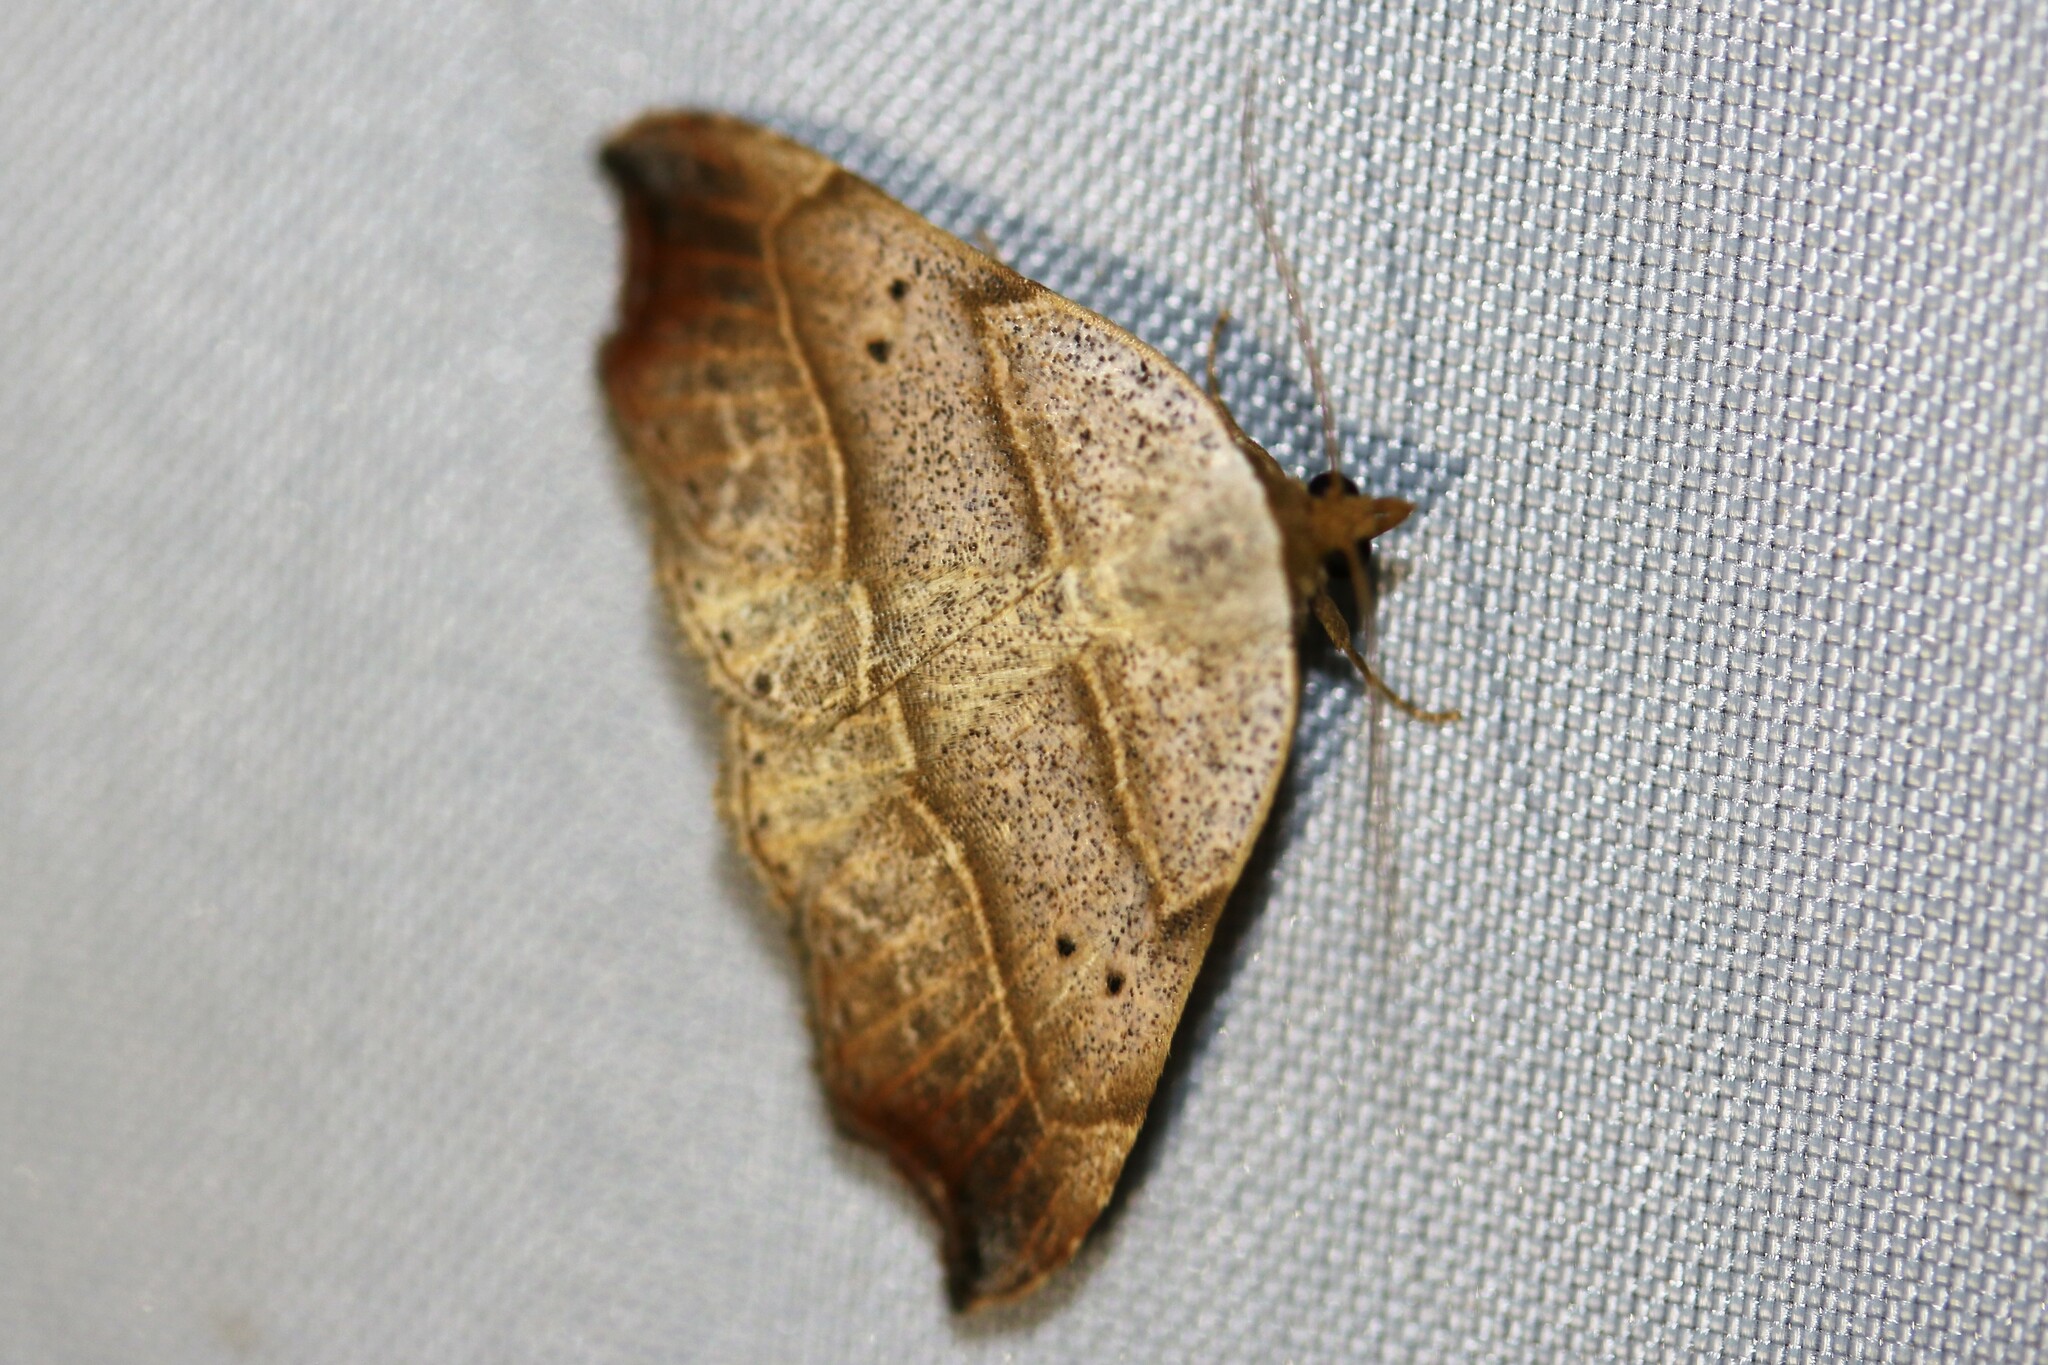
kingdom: Animalia
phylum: Arthropoda
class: Insecta
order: Lepidoptera
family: Erebidae
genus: Laspeyria
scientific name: Laspeyria flexula
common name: Beautiful hook-tip
